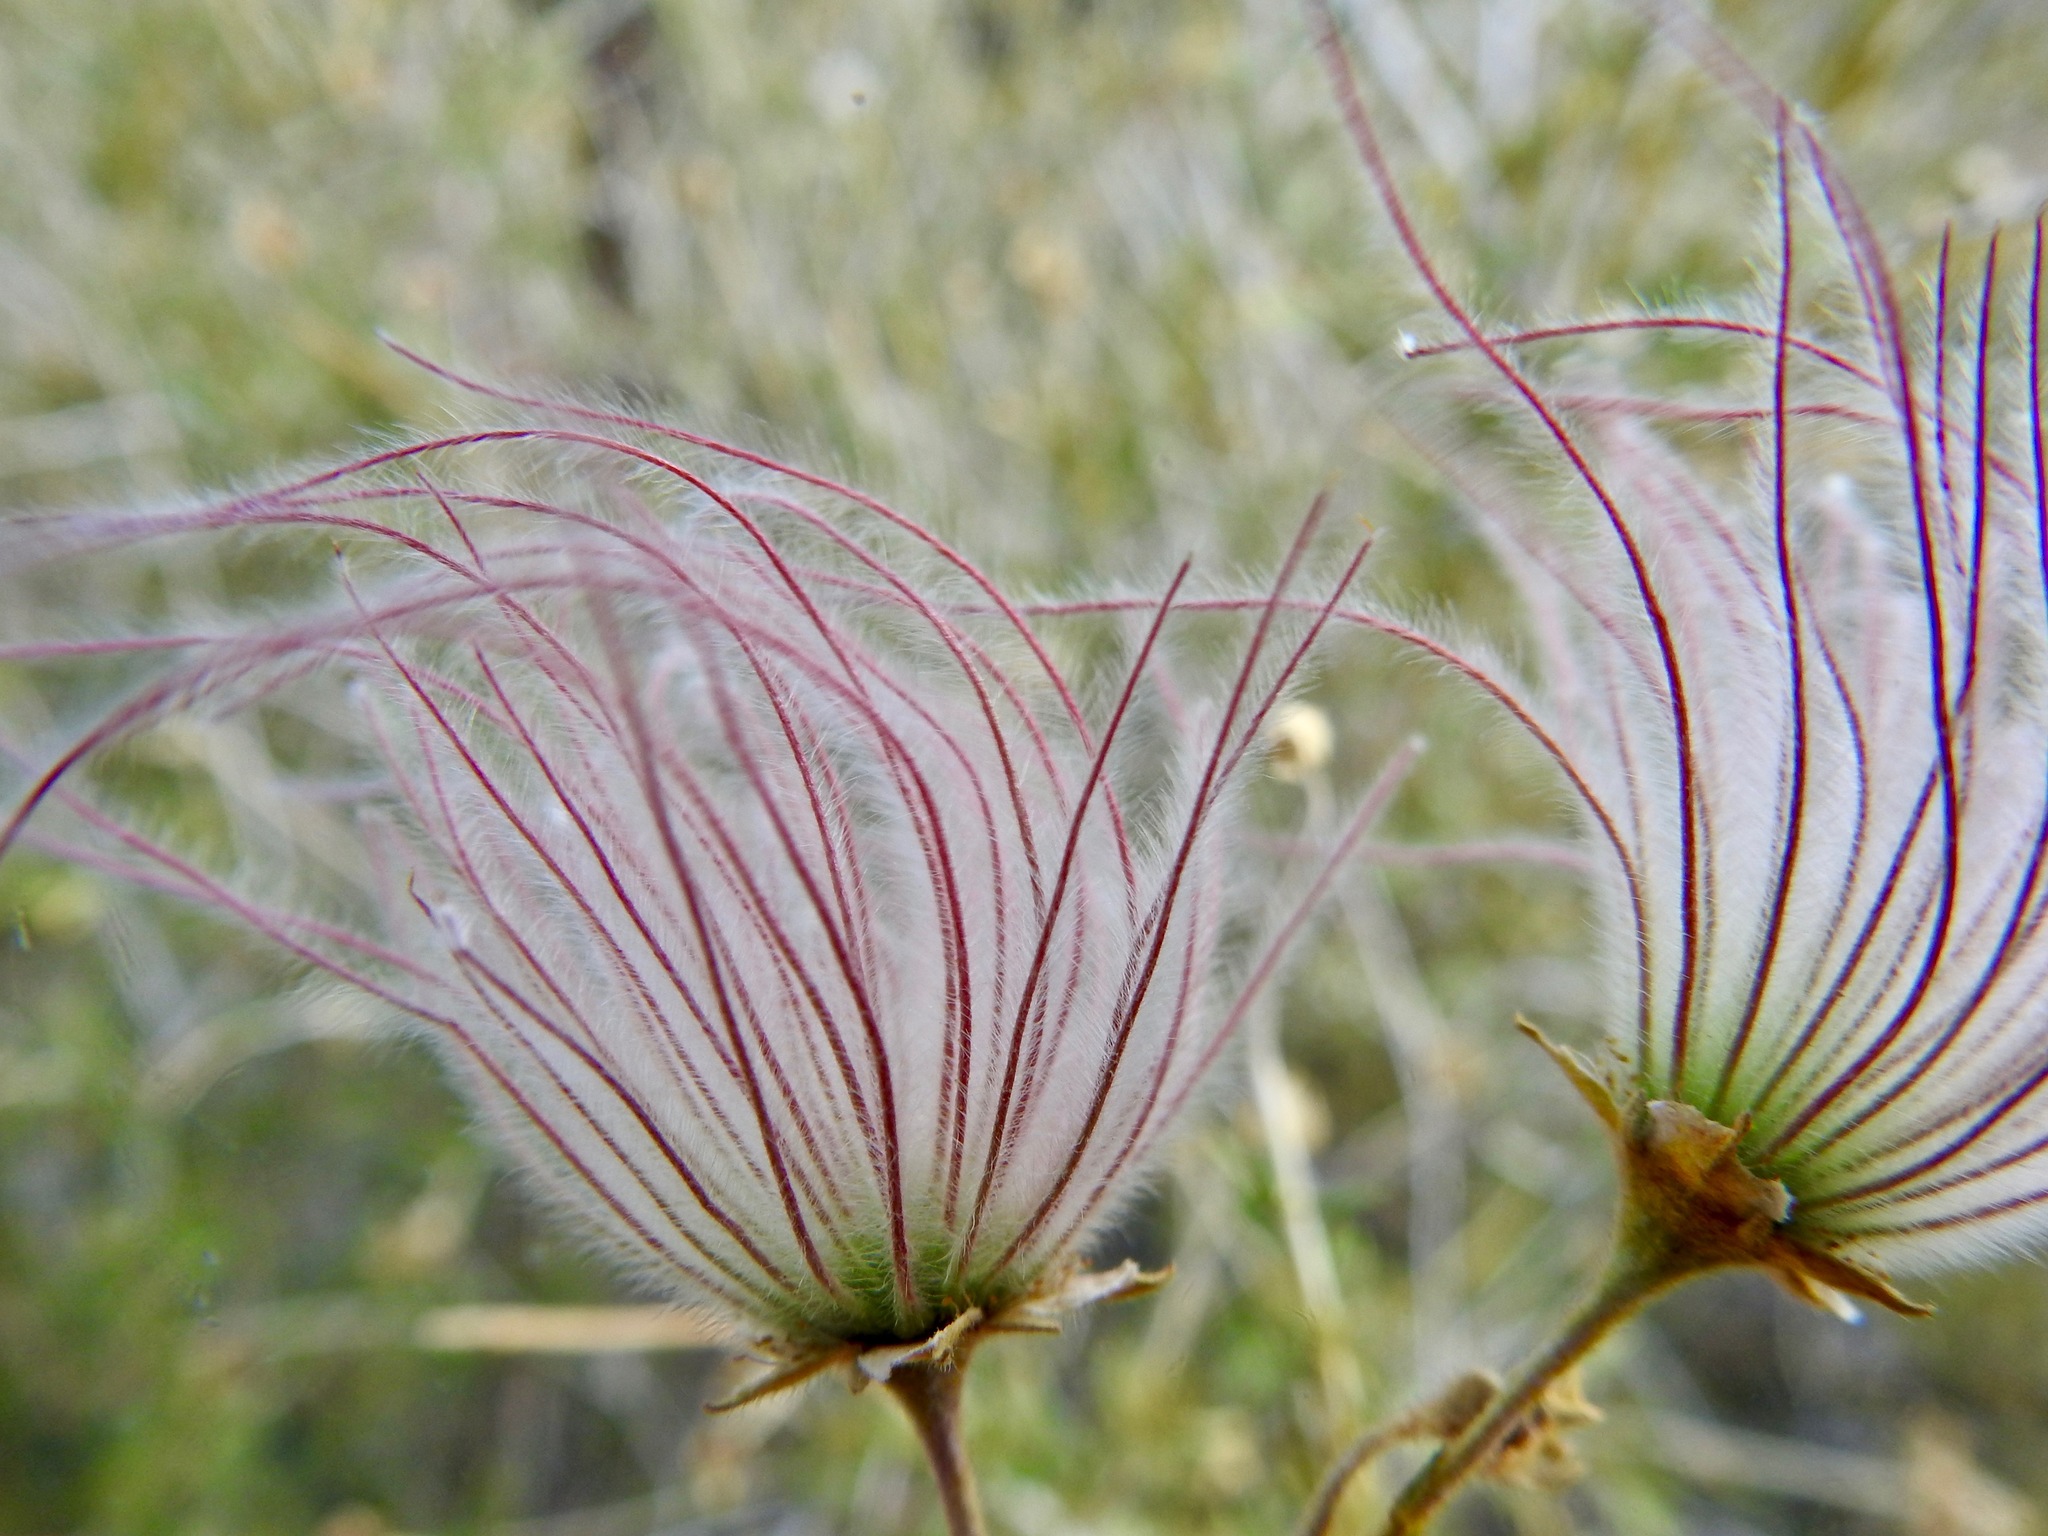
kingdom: Plantae
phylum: Tracheophyta
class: Magnoliopsida
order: Rosales
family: Rosaceae
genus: Fallugia
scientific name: Fallugia paradoxa
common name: Apache-plume
